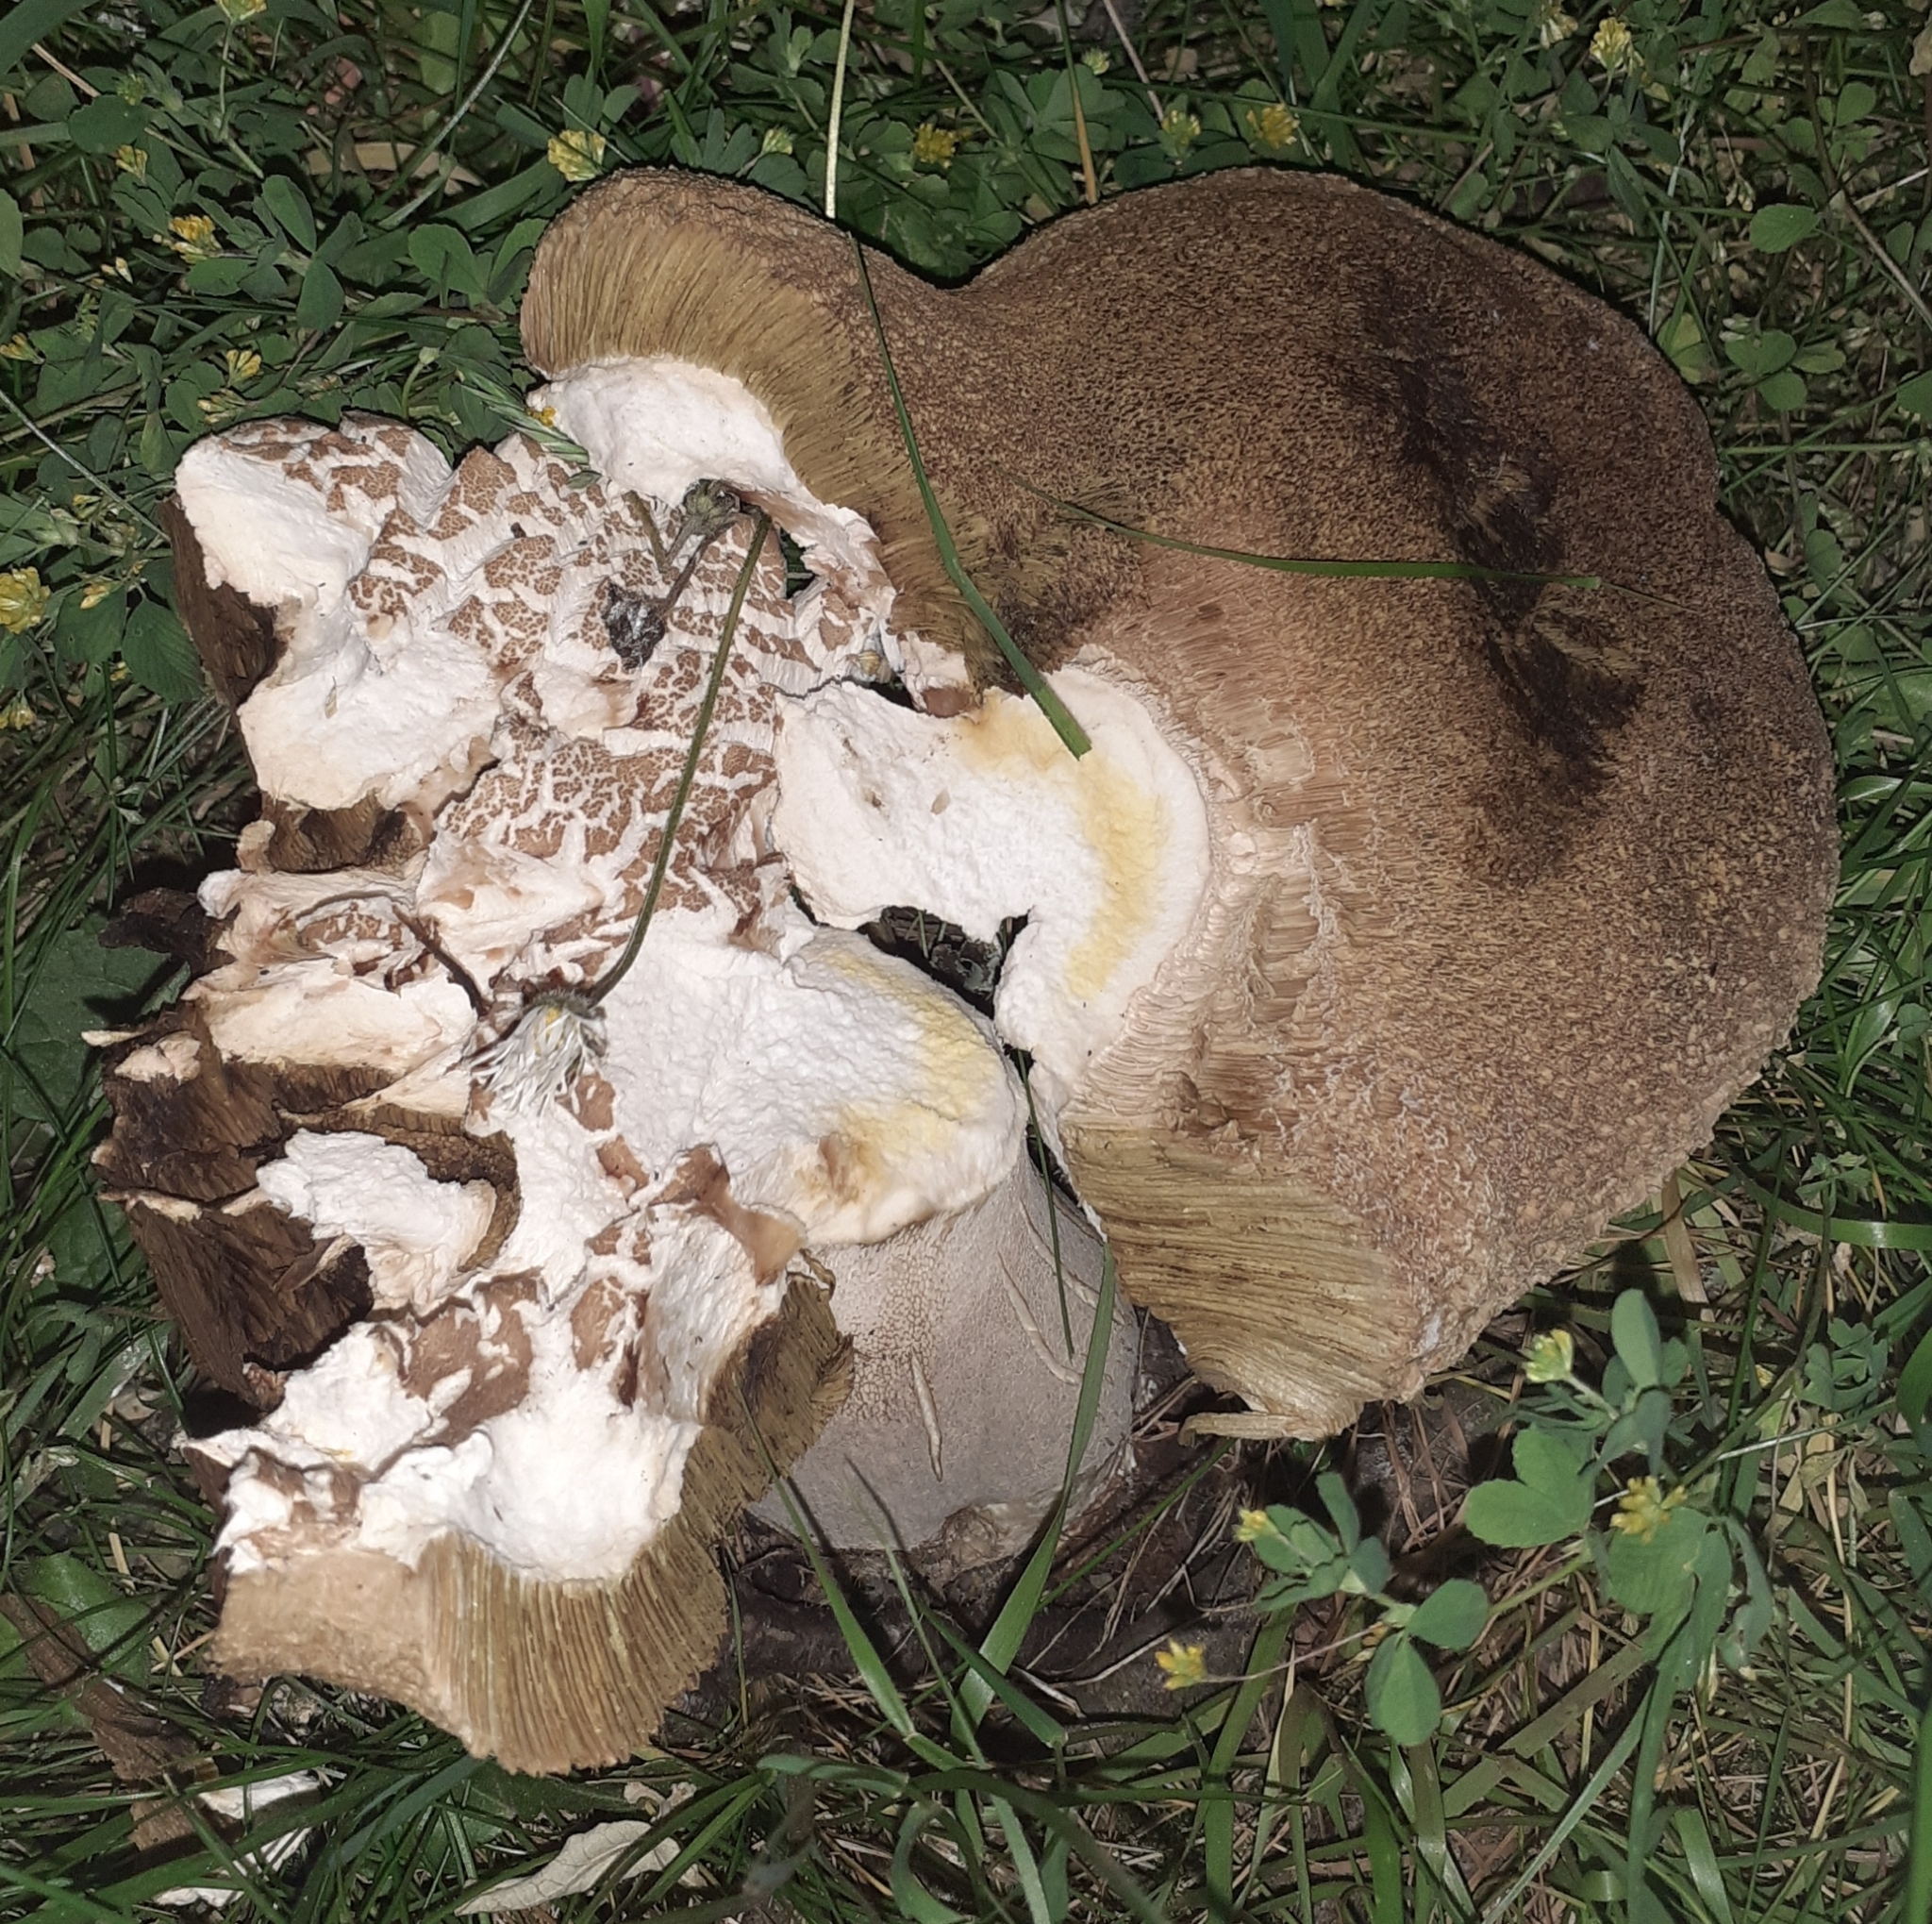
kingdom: Fungi
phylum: Basidiomycota
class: Agaricomycetes
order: Boletales
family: Boletaceae
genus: Boletus
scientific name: Boletus reticulatus
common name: Summer bolete
